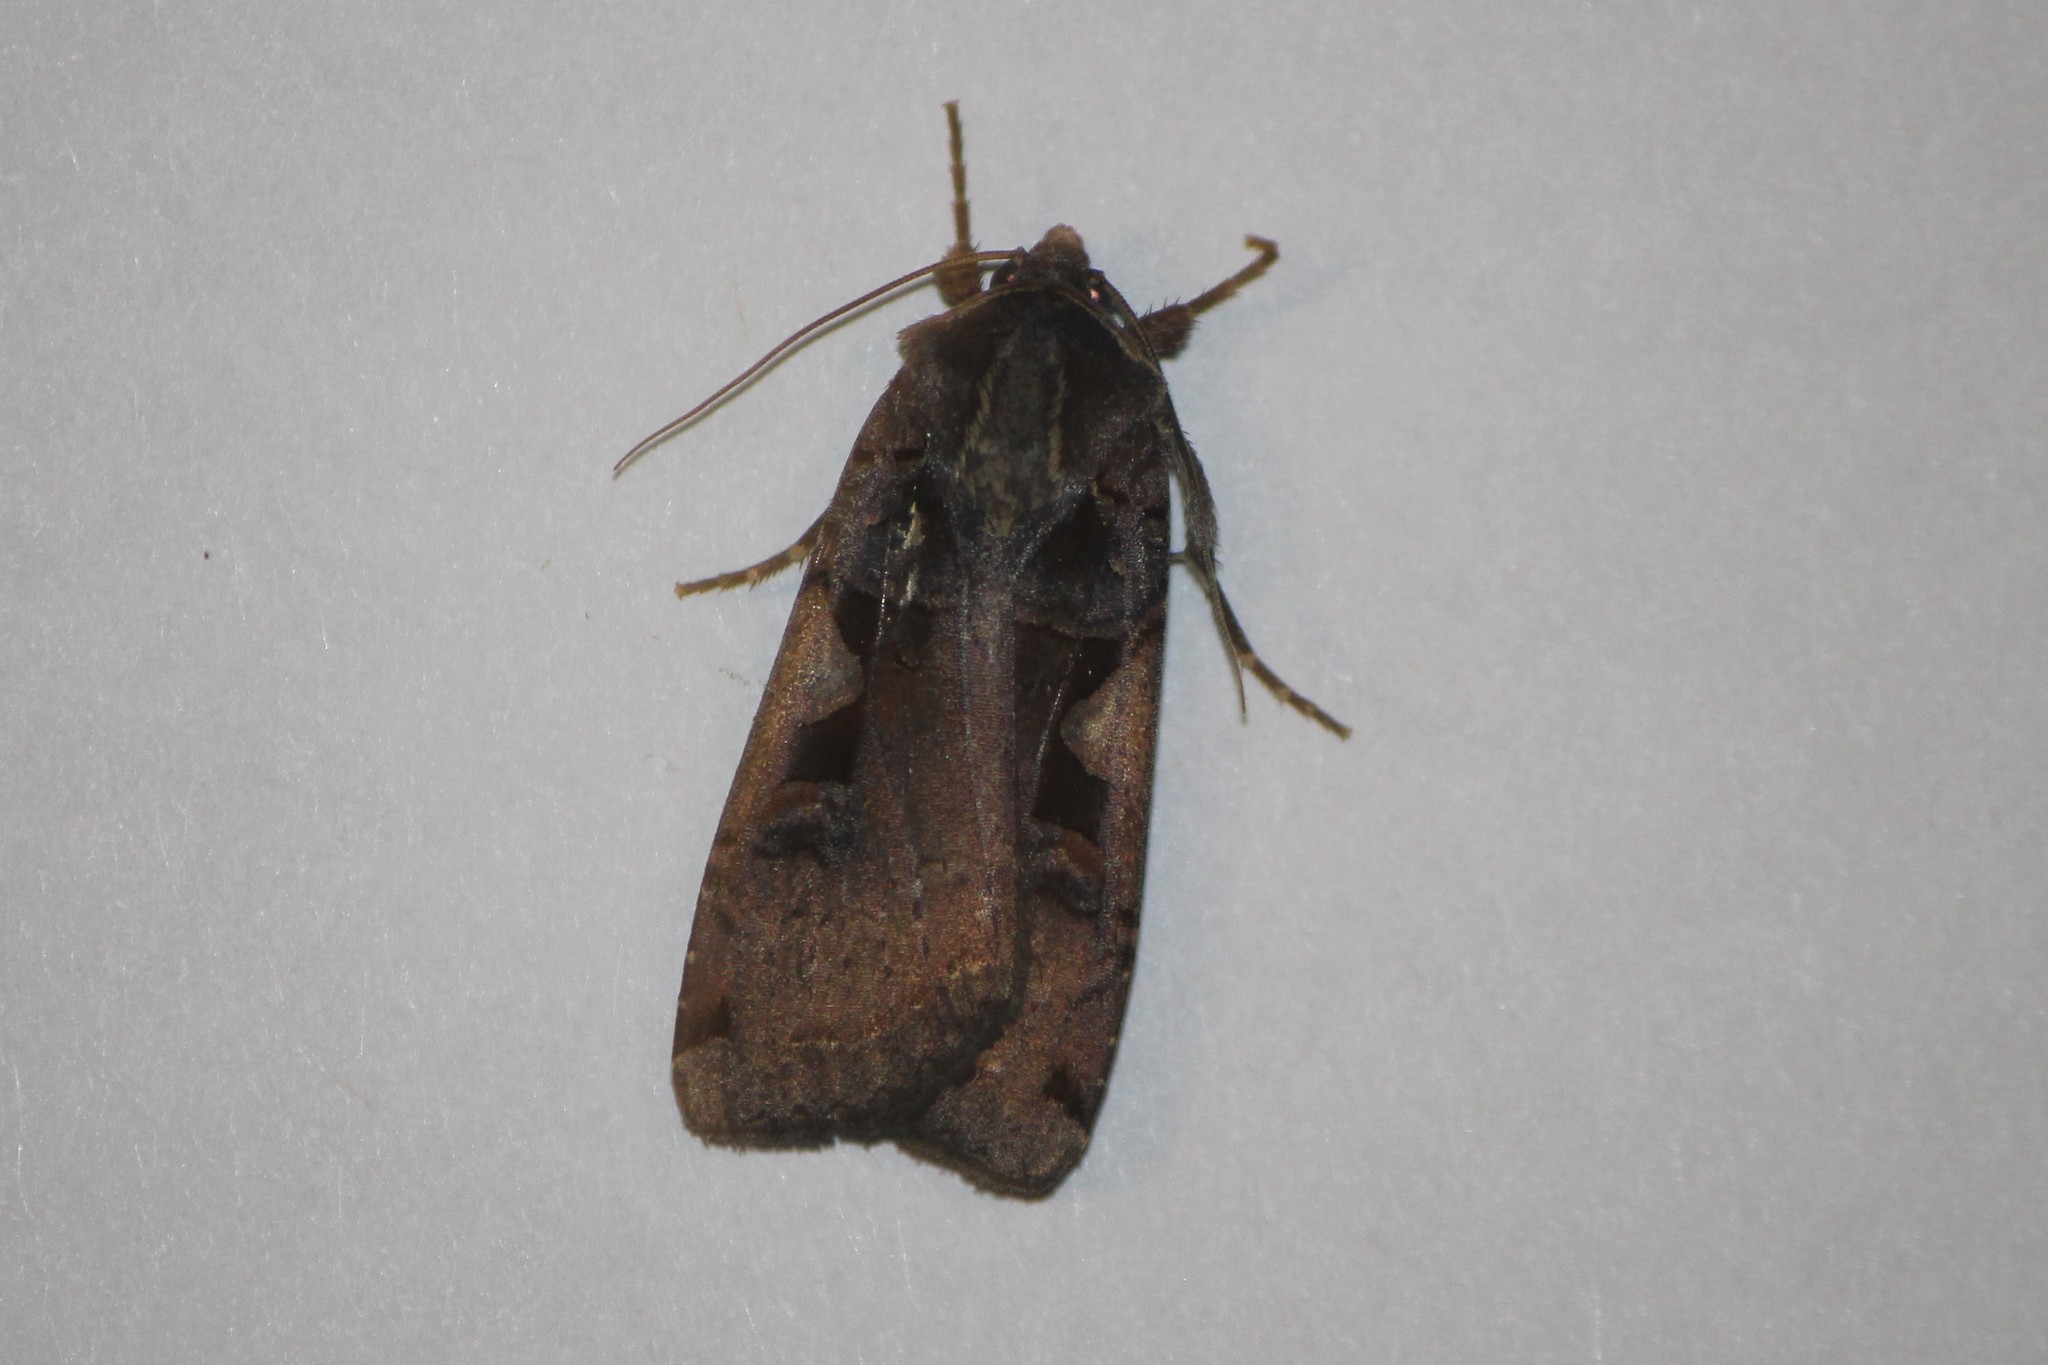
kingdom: Animalia
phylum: Arthropoda
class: Insecta
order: Lepidoptera
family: Noctuidae
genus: Xestia
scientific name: Xestia c-nigrum
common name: Setaceous hebrew character
